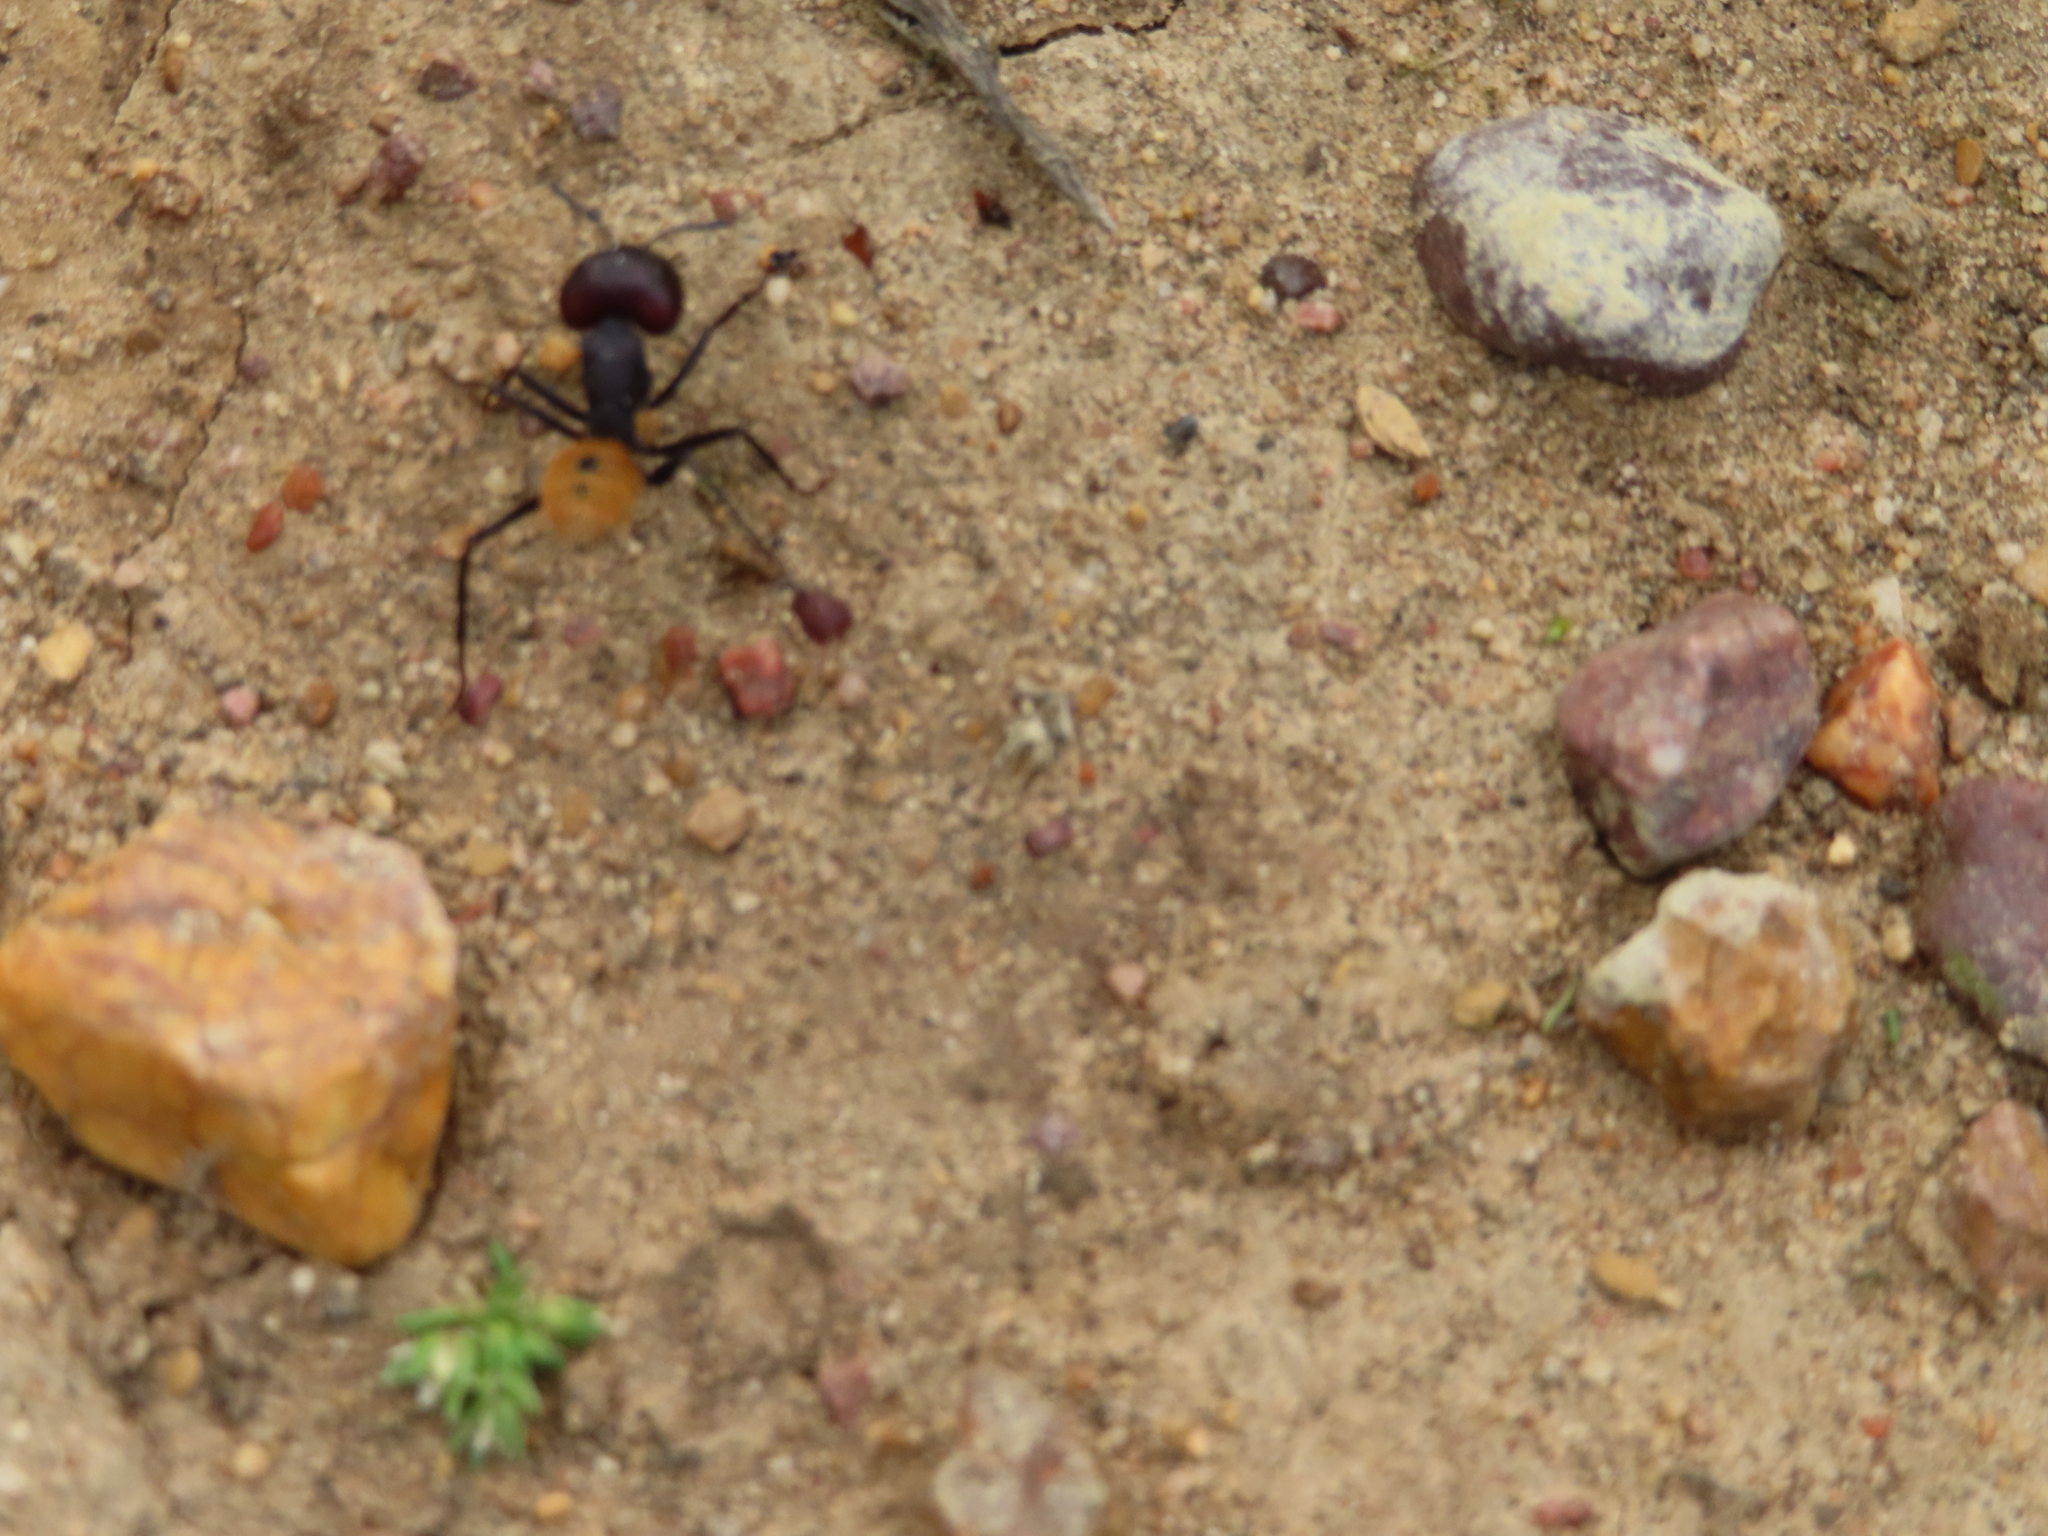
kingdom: Animalia
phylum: Arthropoda
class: Insecta
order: Hymenoptera
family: Formicidae
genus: Camponotus
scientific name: Camponotus fulvopilosus
